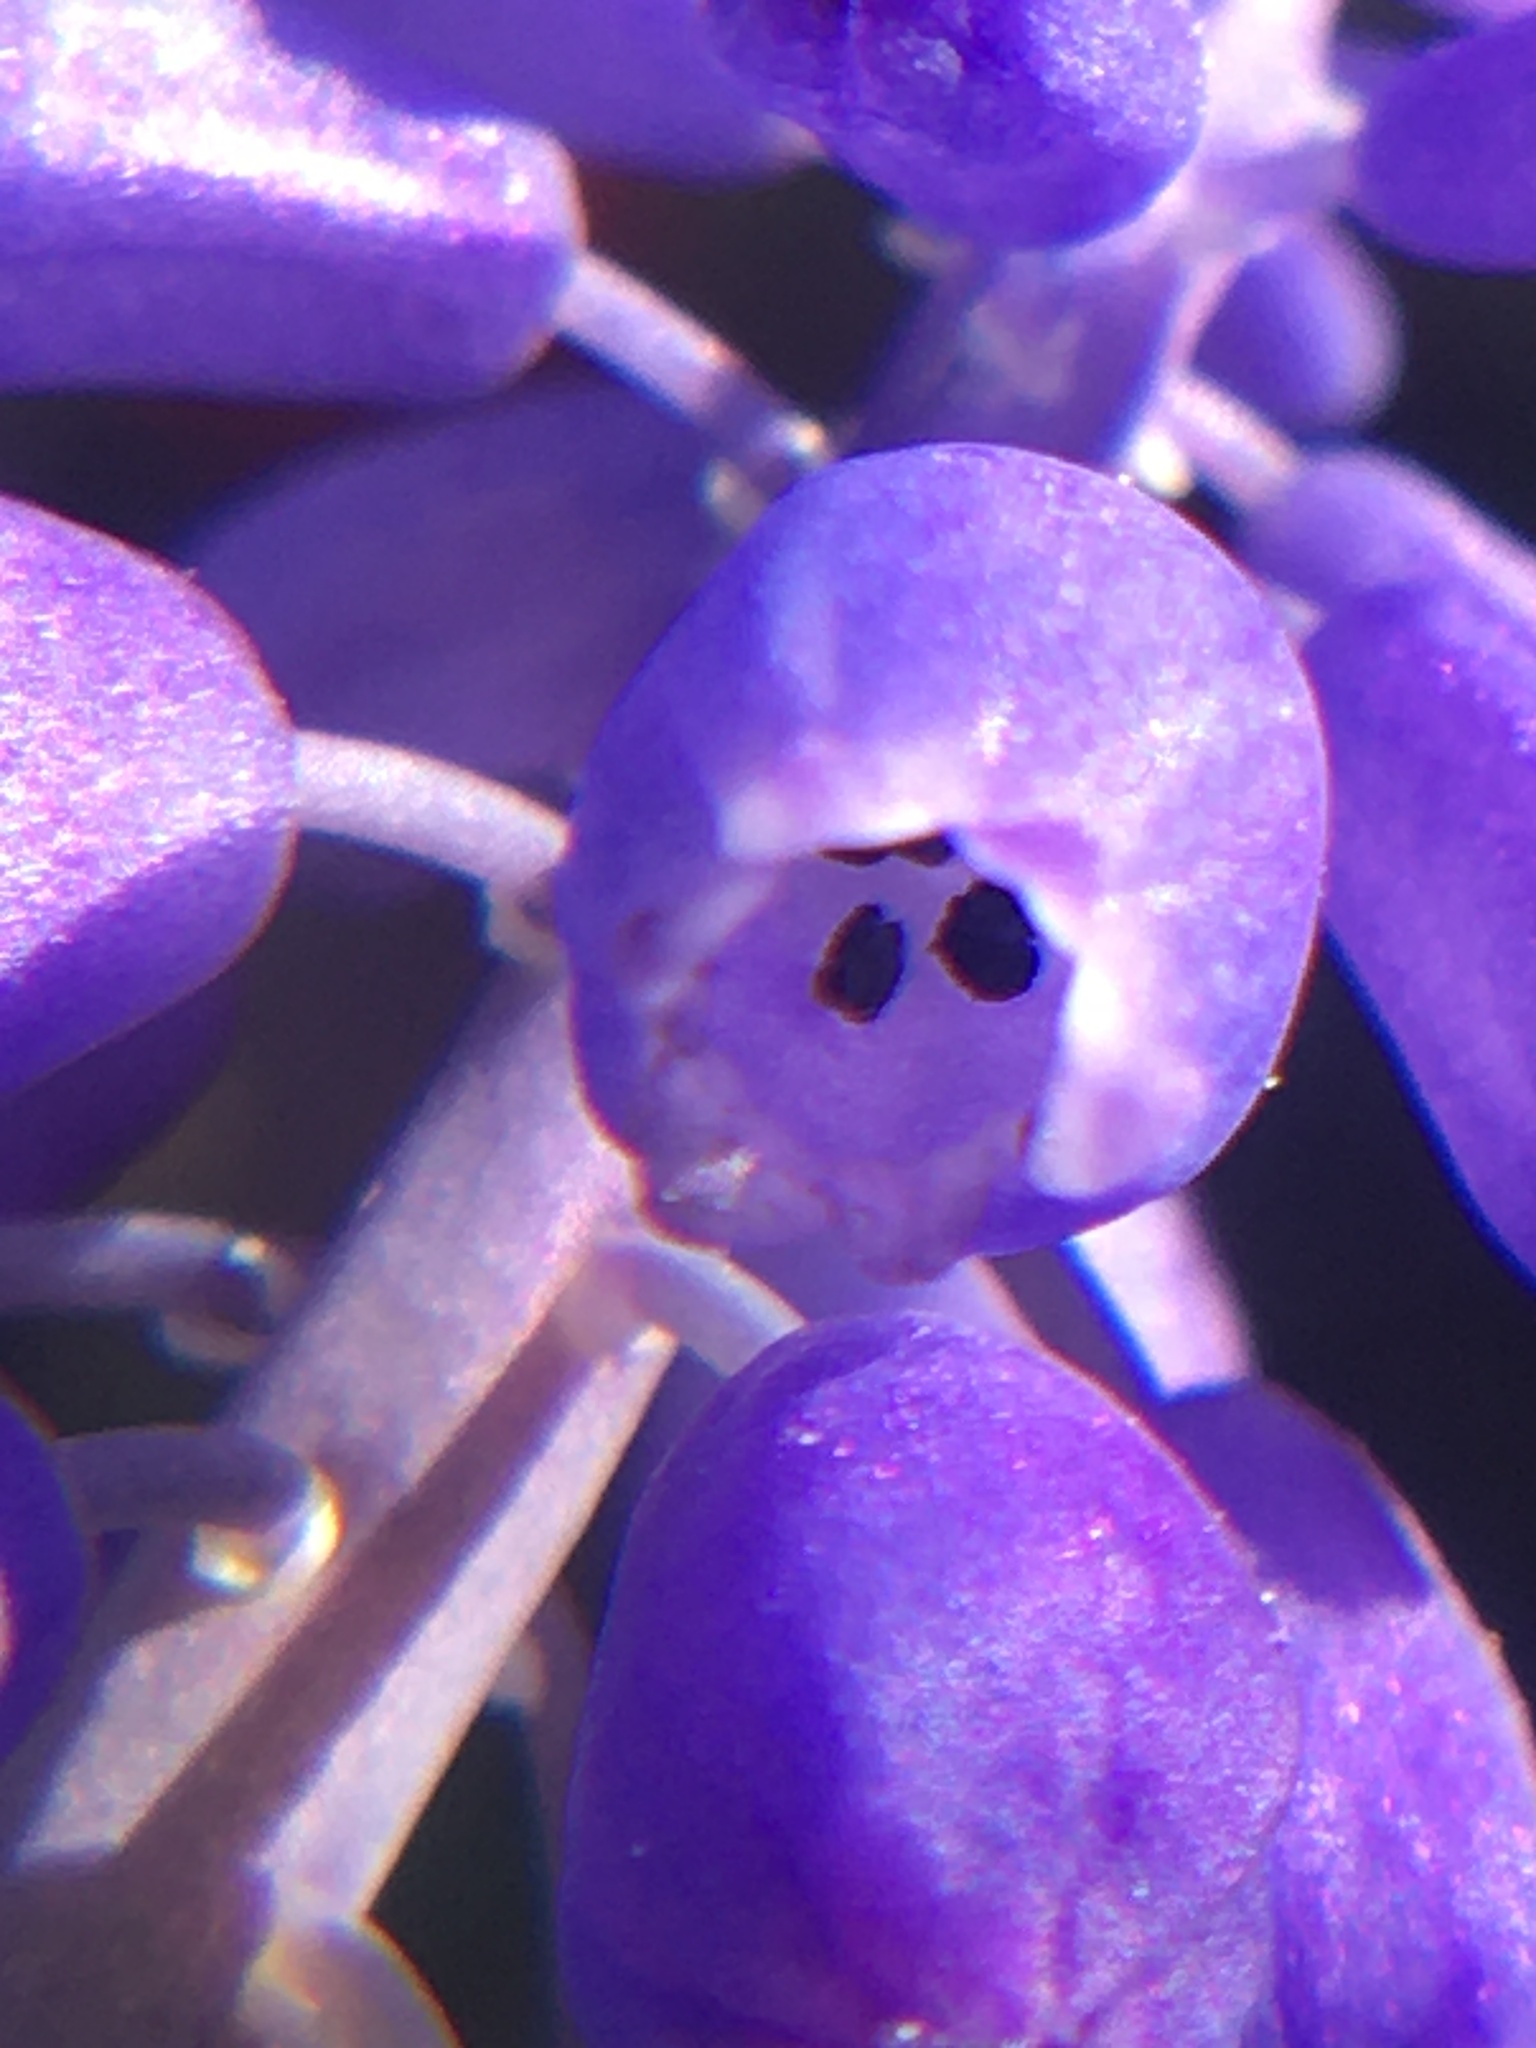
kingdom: Plantae
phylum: Tracheophyta
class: Liliopsida
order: Asparagales
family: Asparagaceae
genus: Muscari
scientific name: Muscari neglectum
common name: Grape-hyacinth
